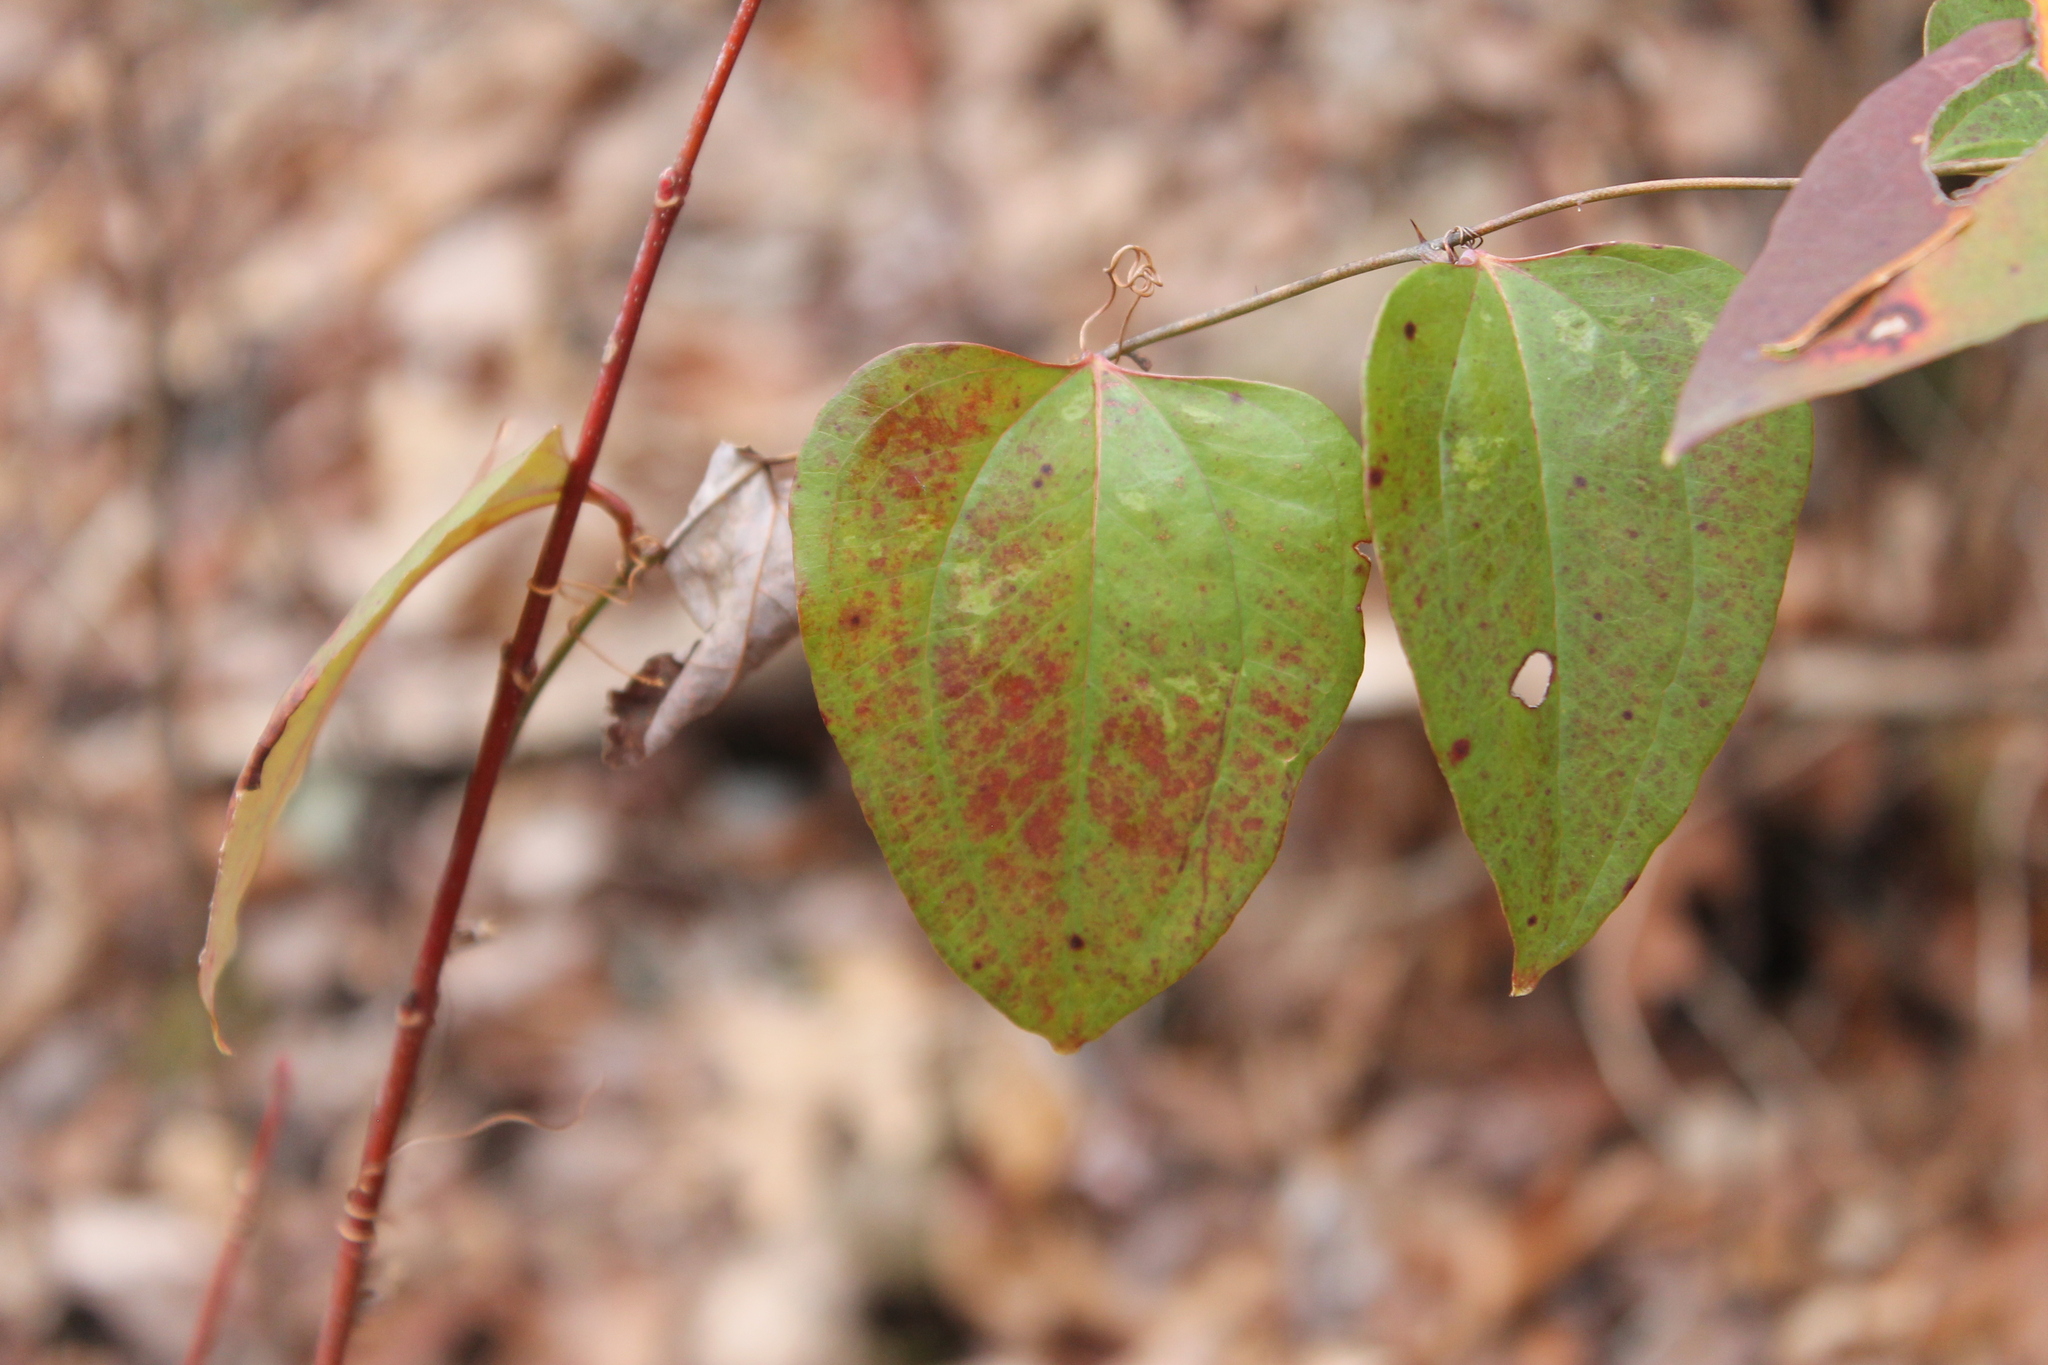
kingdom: Plantae
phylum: Tracheophyta
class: Liliopsida
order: Liliales
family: Smilacaceae
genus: Smilax
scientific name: Smilax glauca
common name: Cat greenbrier
